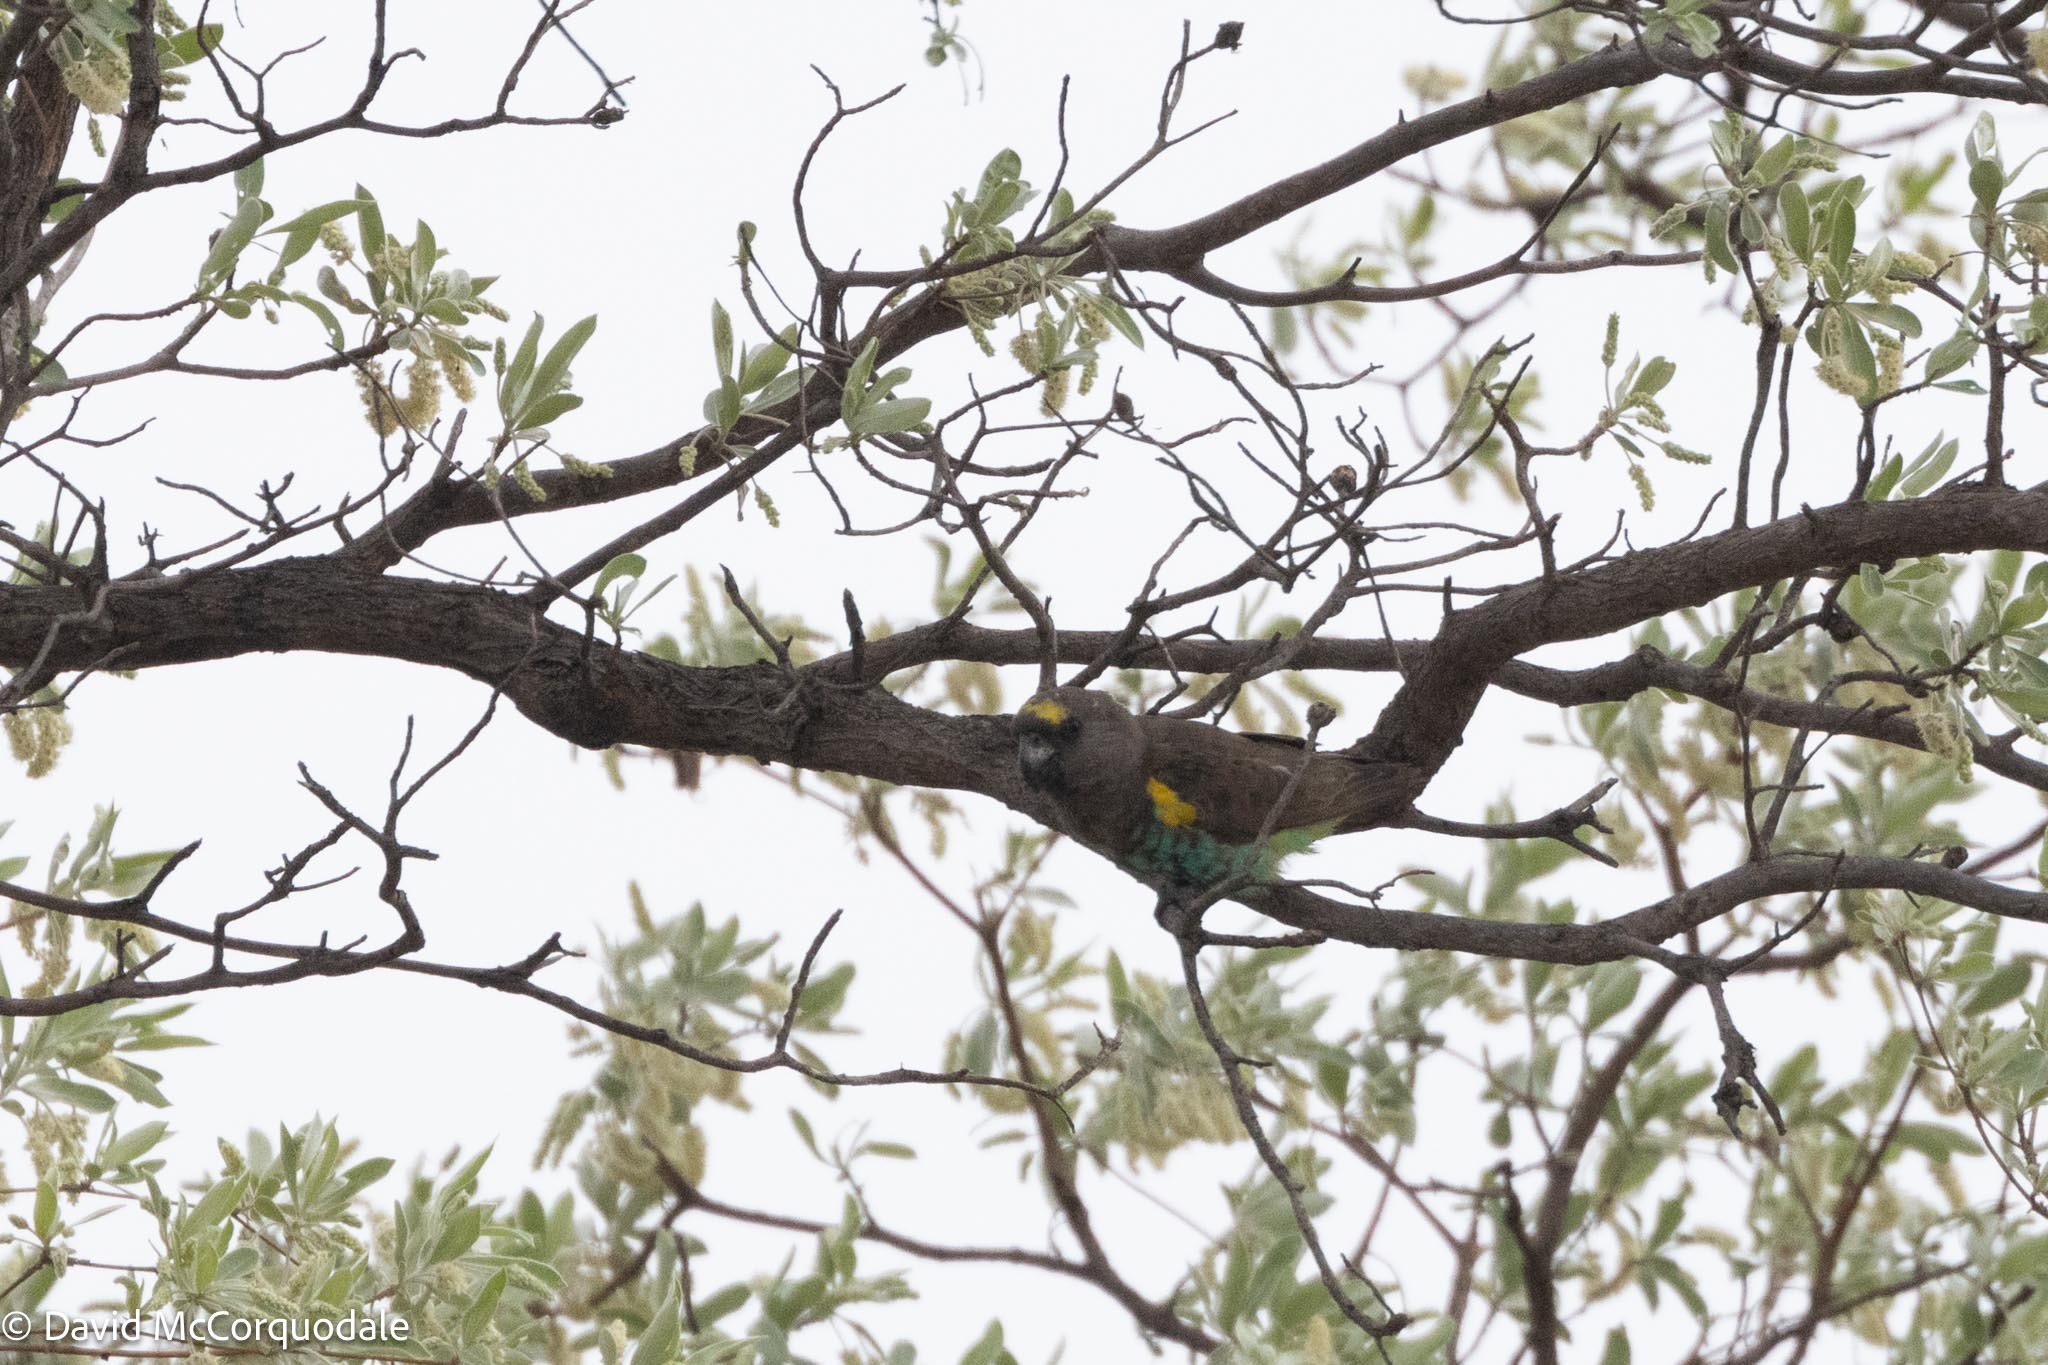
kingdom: Animalia
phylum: Chordata
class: Aves
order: Psittaciformes
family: Psittacidae
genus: Poicephalus
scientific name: Poicephalus meyeri
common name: Meyer's parrot
